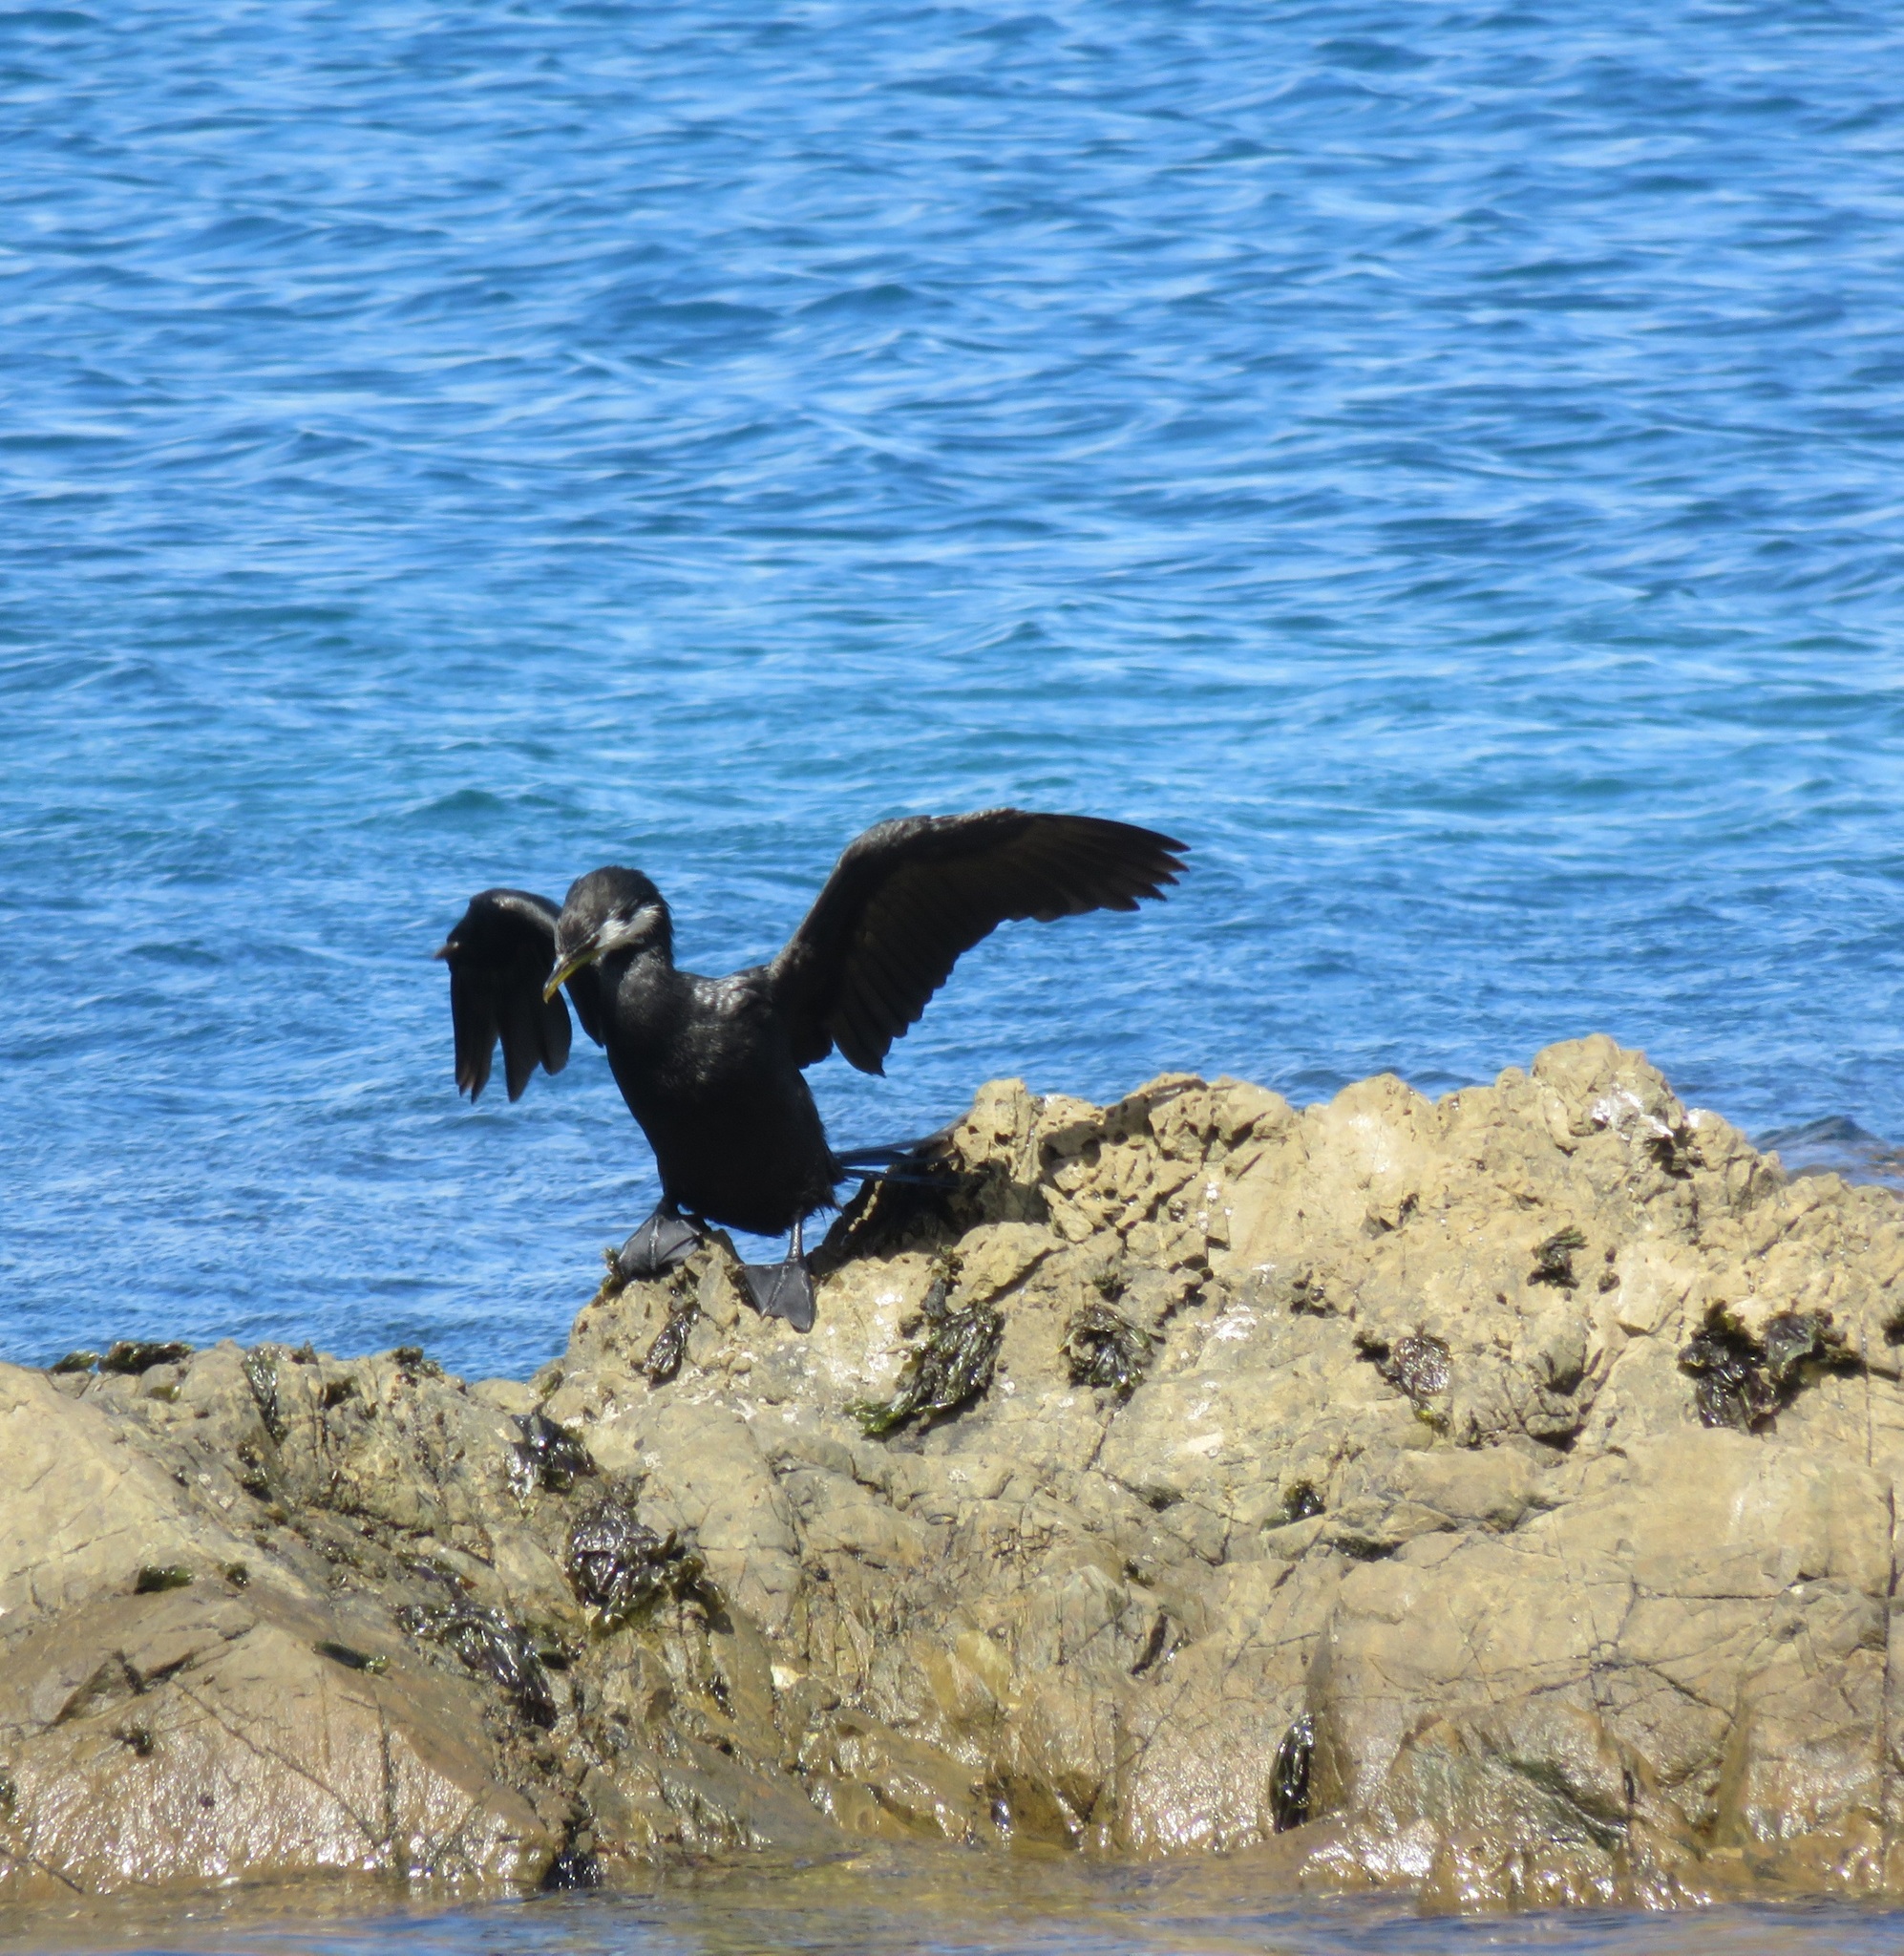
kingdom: Animalia
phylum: Chordata
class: Aves
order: Suliformes
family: Phalacrocoracidae
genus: Microcarbo
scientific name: Microcarbo melanoleucos
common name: Little pied cormorant
